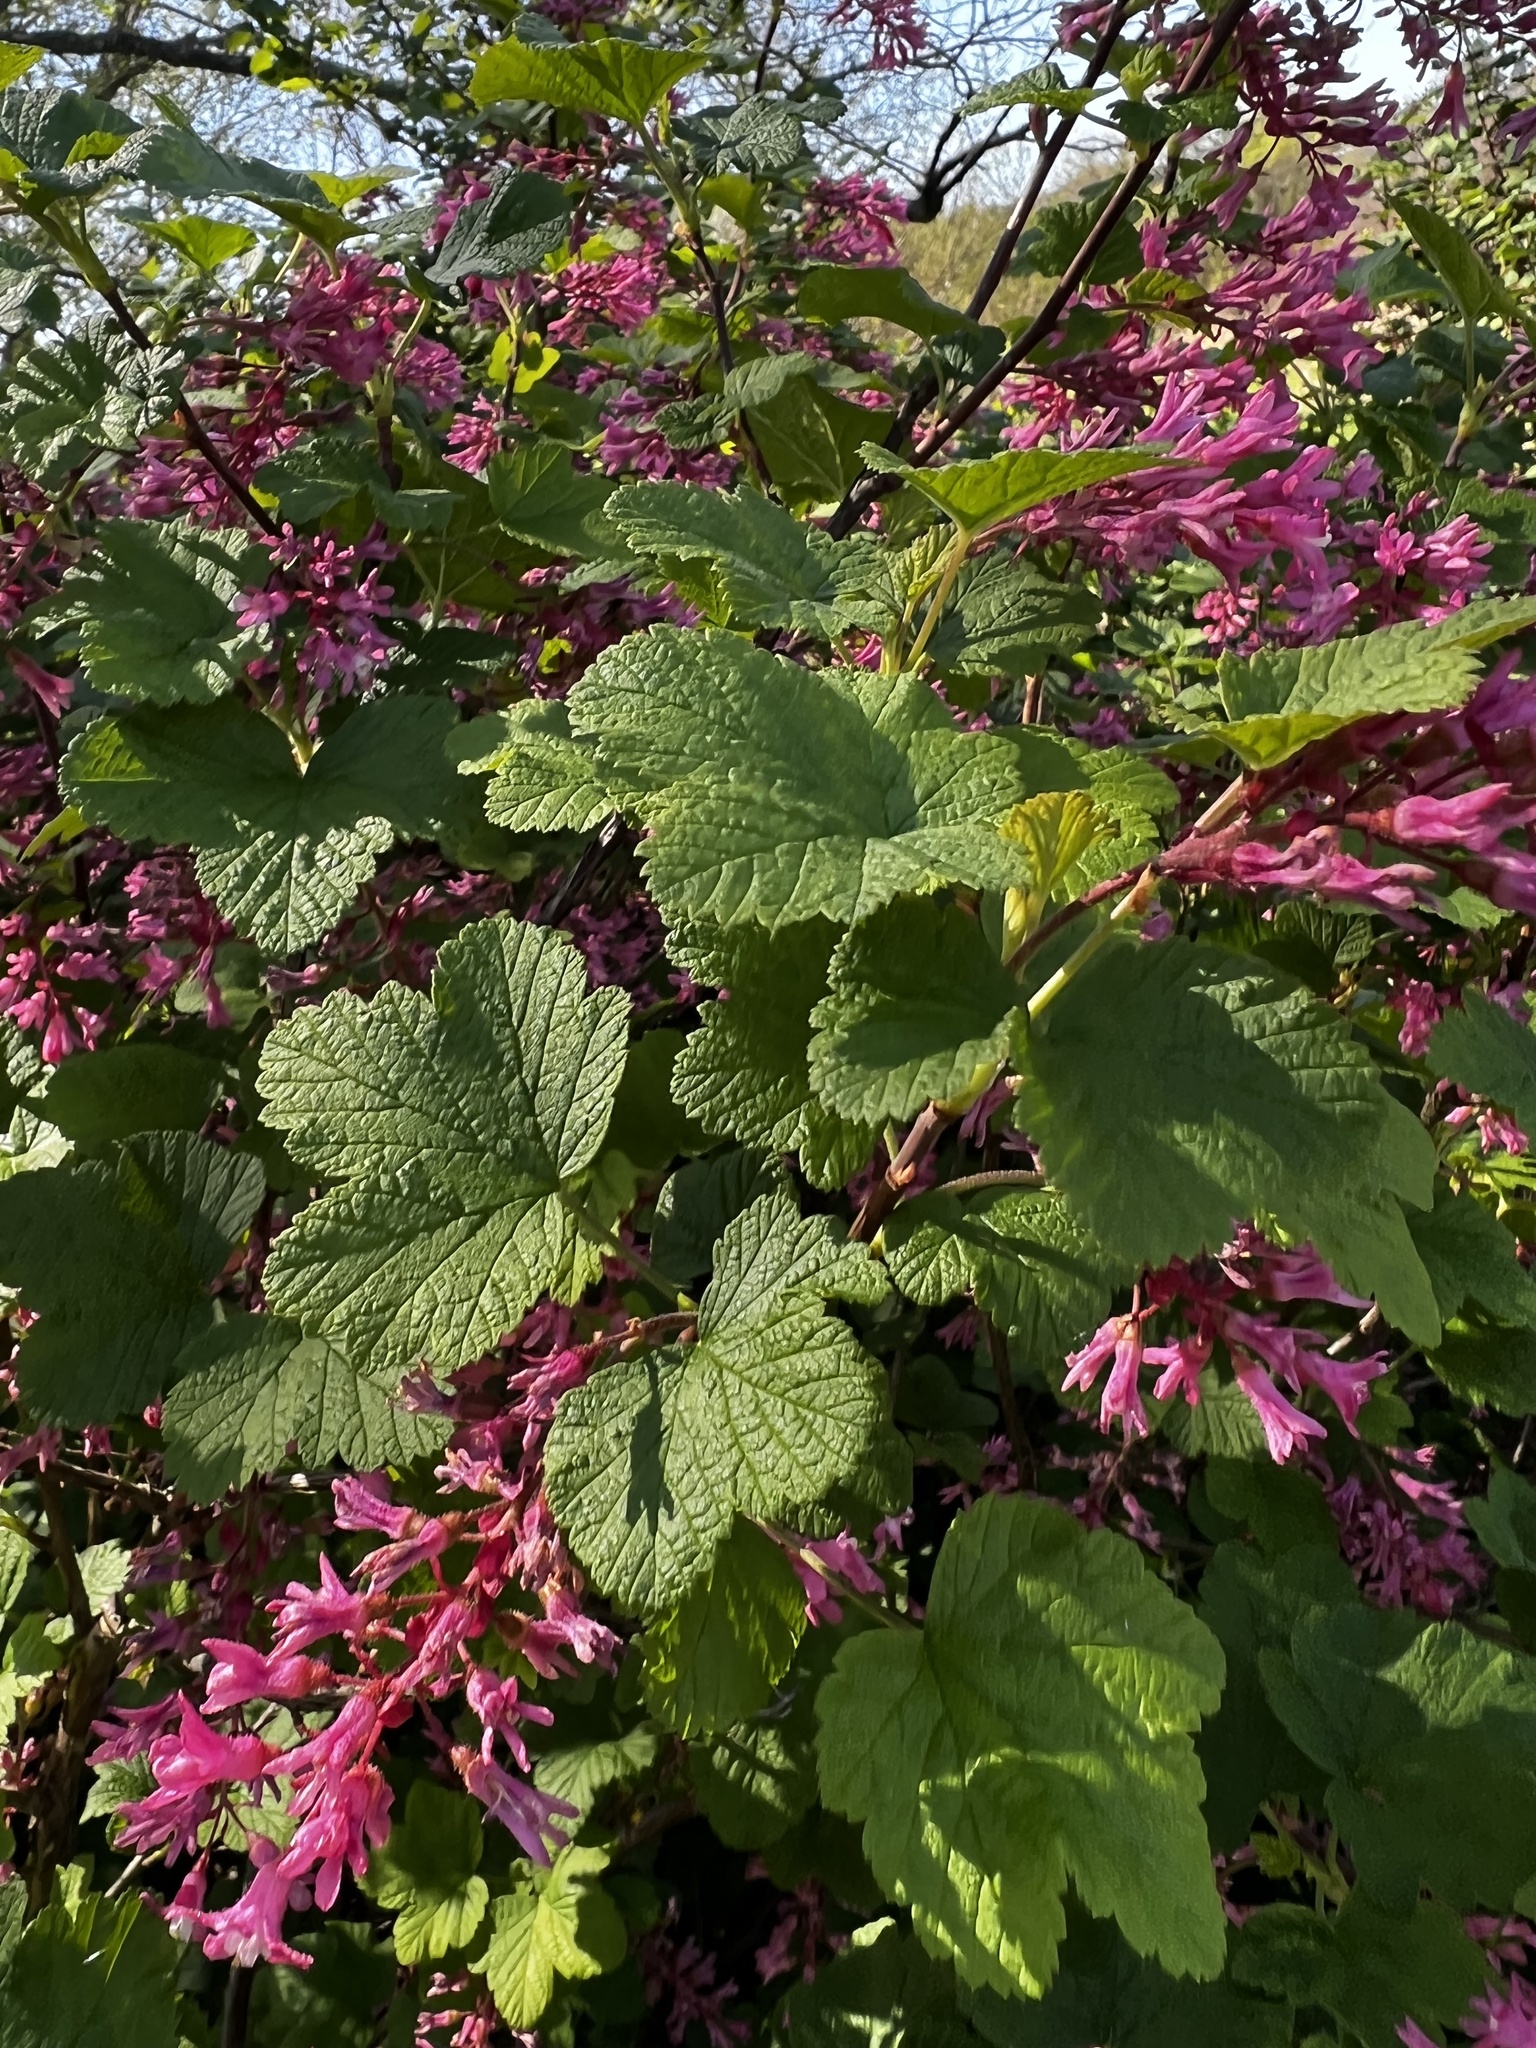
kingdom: Plantae
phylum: Tracheophyta
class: Magnoliopsida
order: Saxifragales
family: Grossulariaceae
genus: Ribes
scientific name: Ribes sanguineum
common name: Flowering currant
